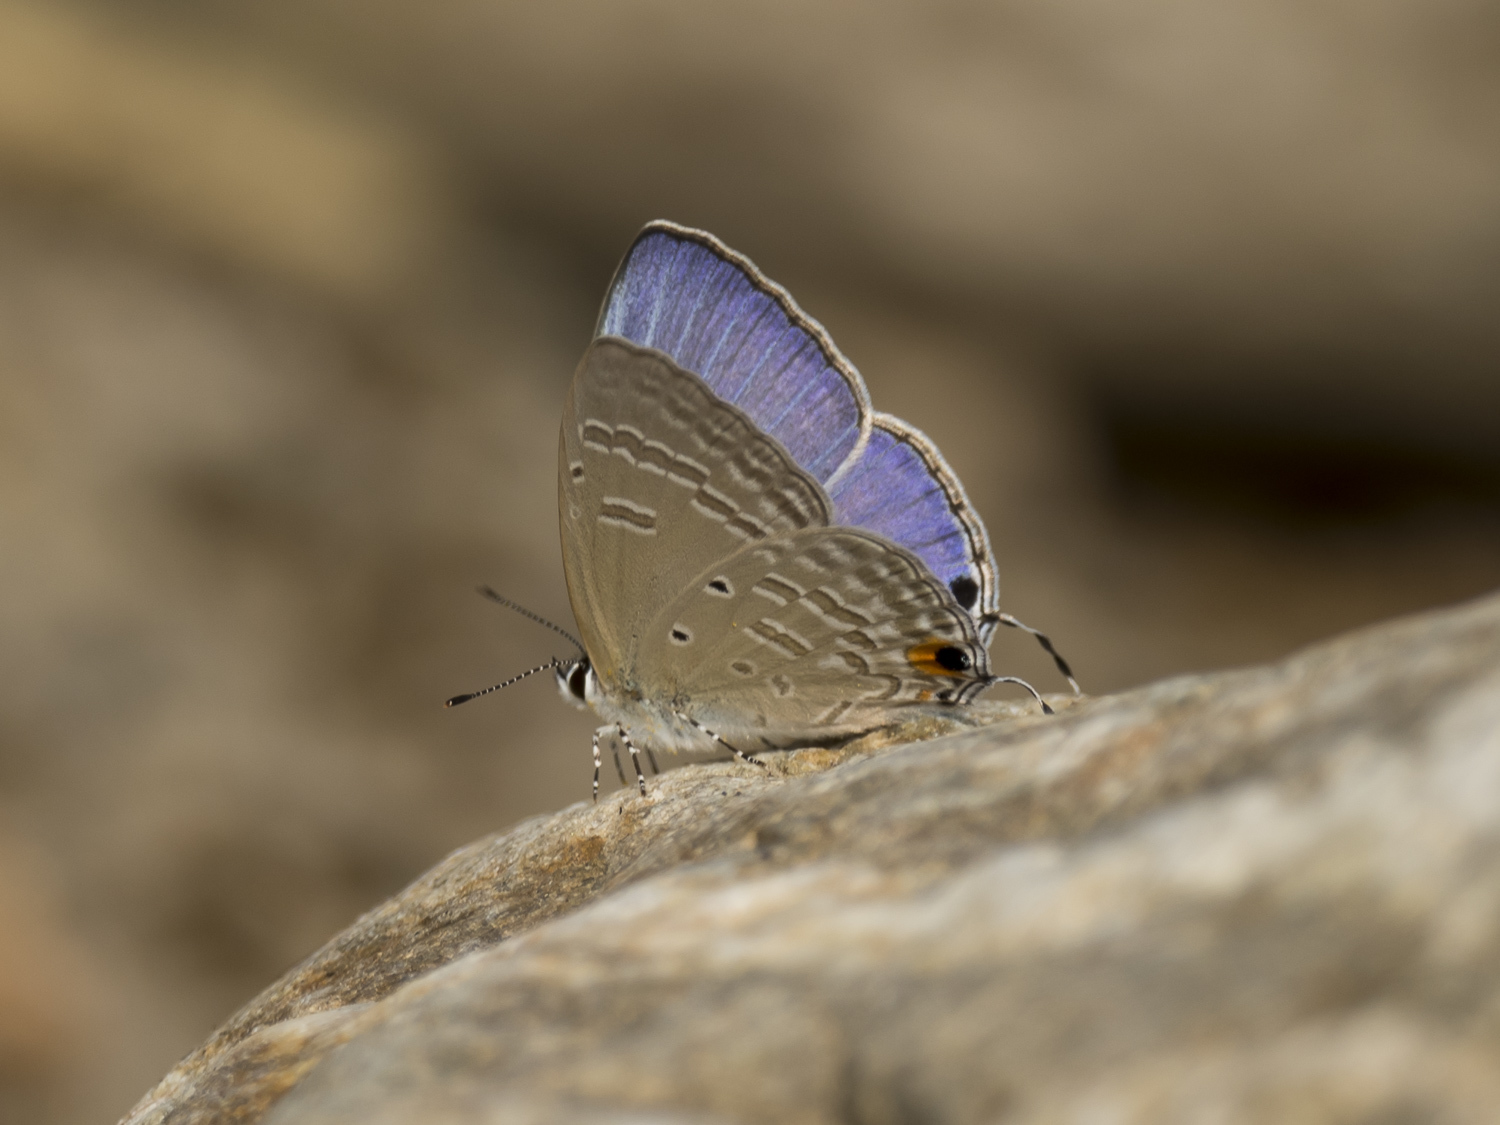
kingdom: Animalia
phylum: Arthropoda
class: Insecta
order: Lepidoptera
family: Lycaenidae
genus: Catochrysops
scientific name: Catochrysops strabo
